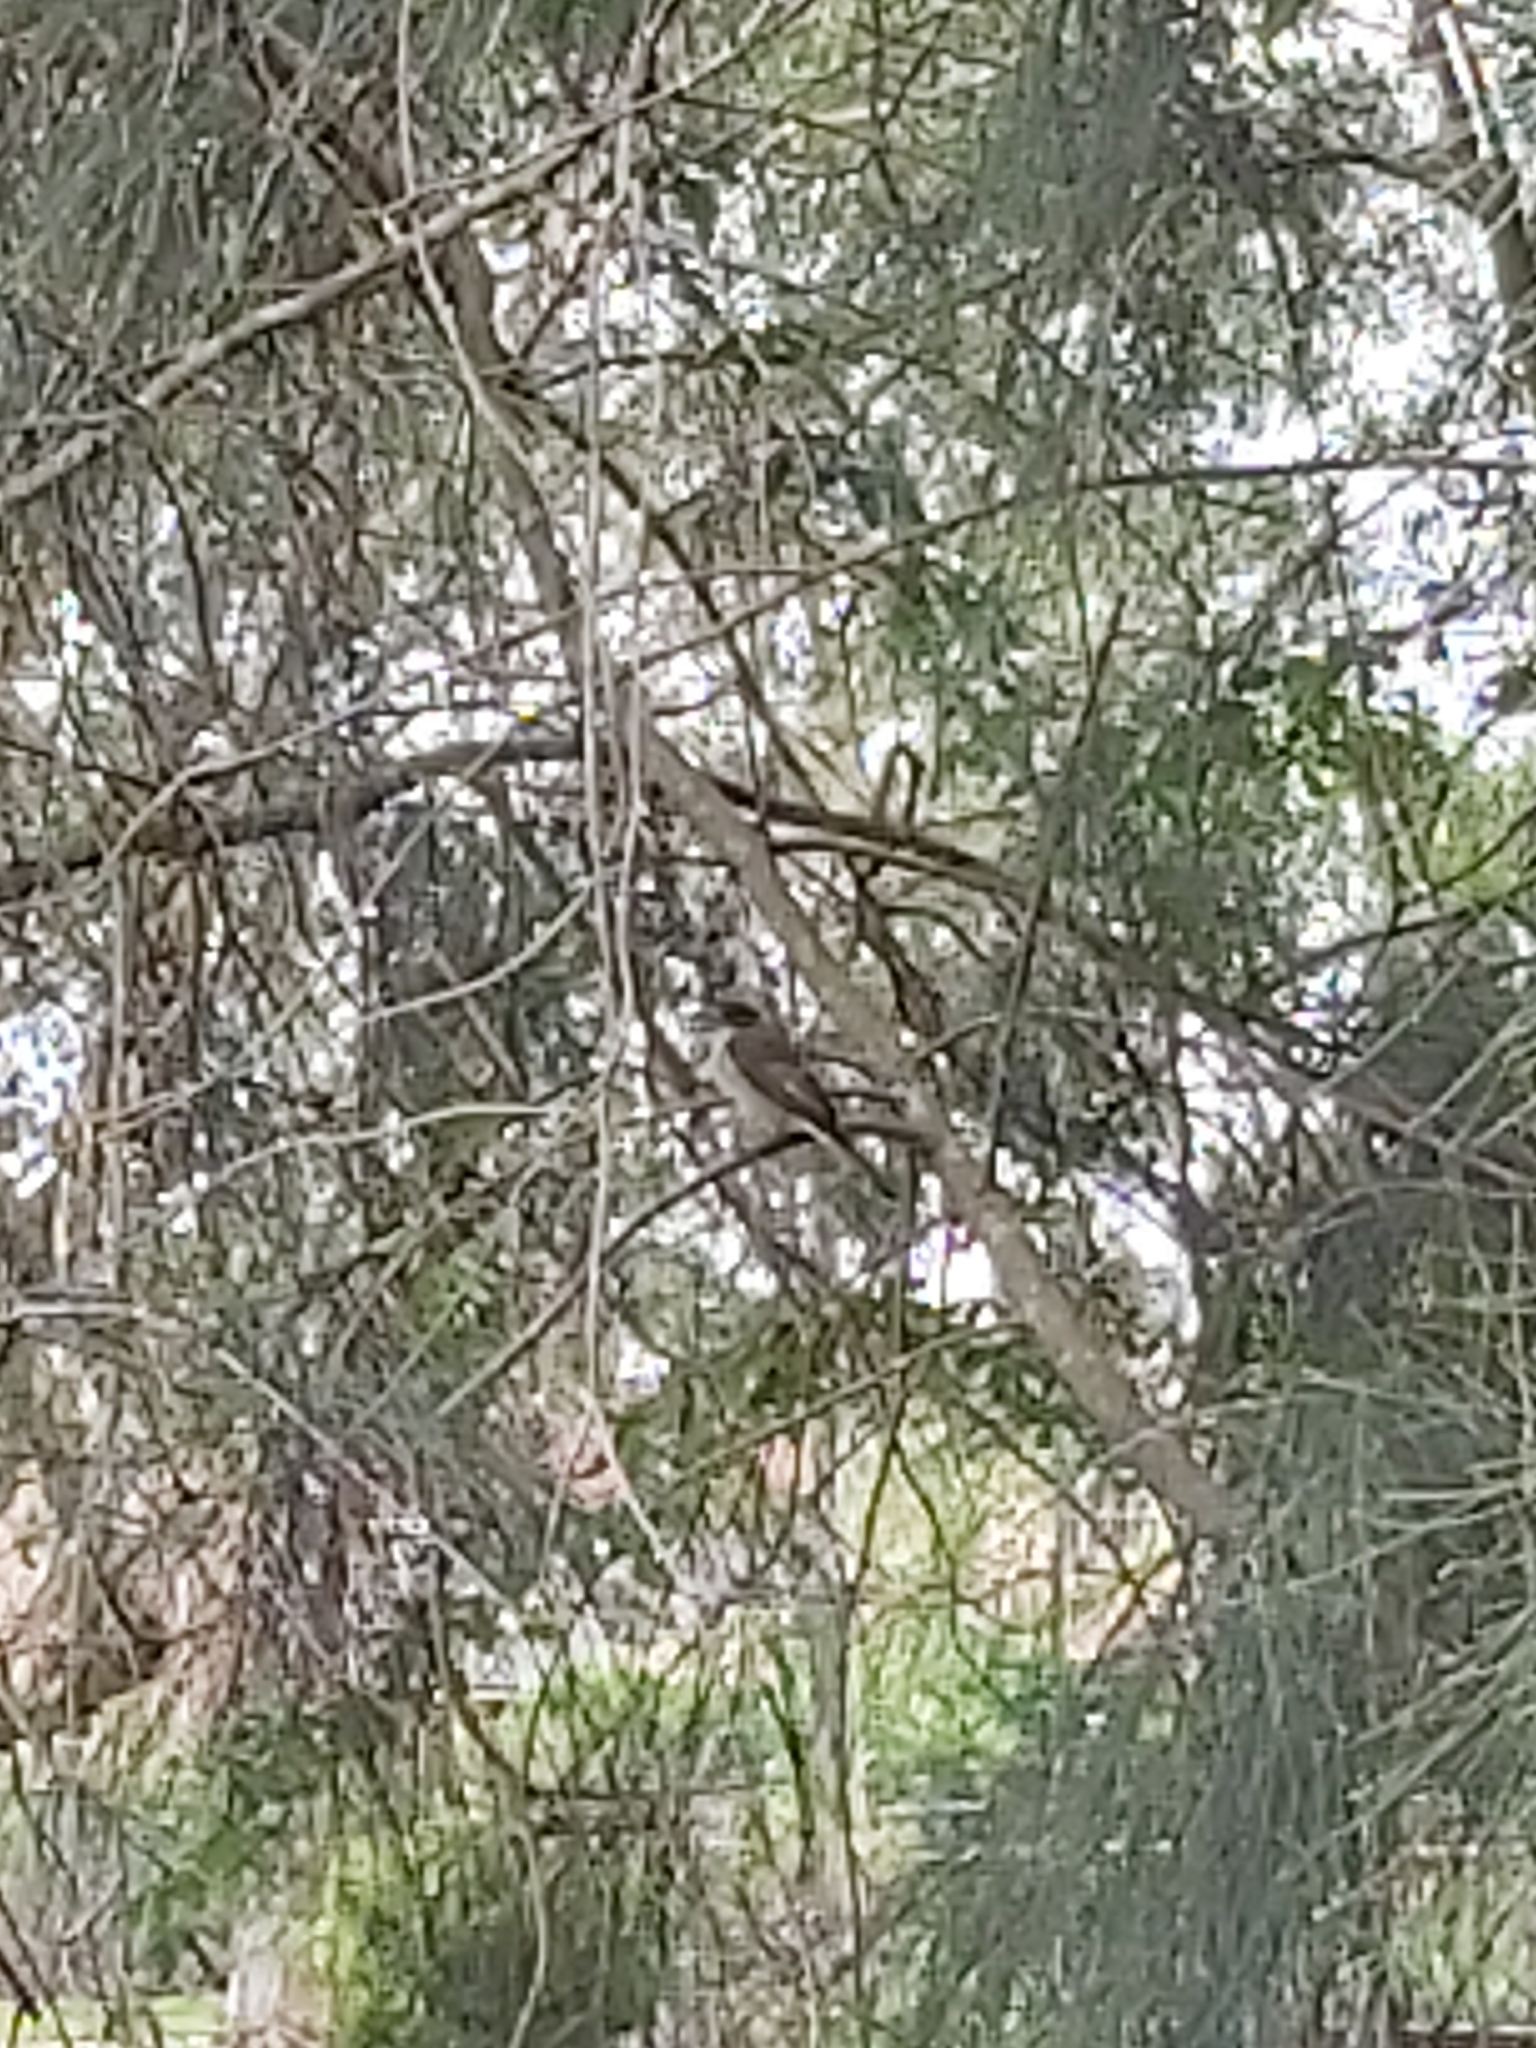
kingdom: Animalia
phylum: Chordata
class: Aves
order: Passeriformes
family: Cracticidae
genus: Cracticus
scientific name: Cracticus torquatus
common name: Grey butcherbird
